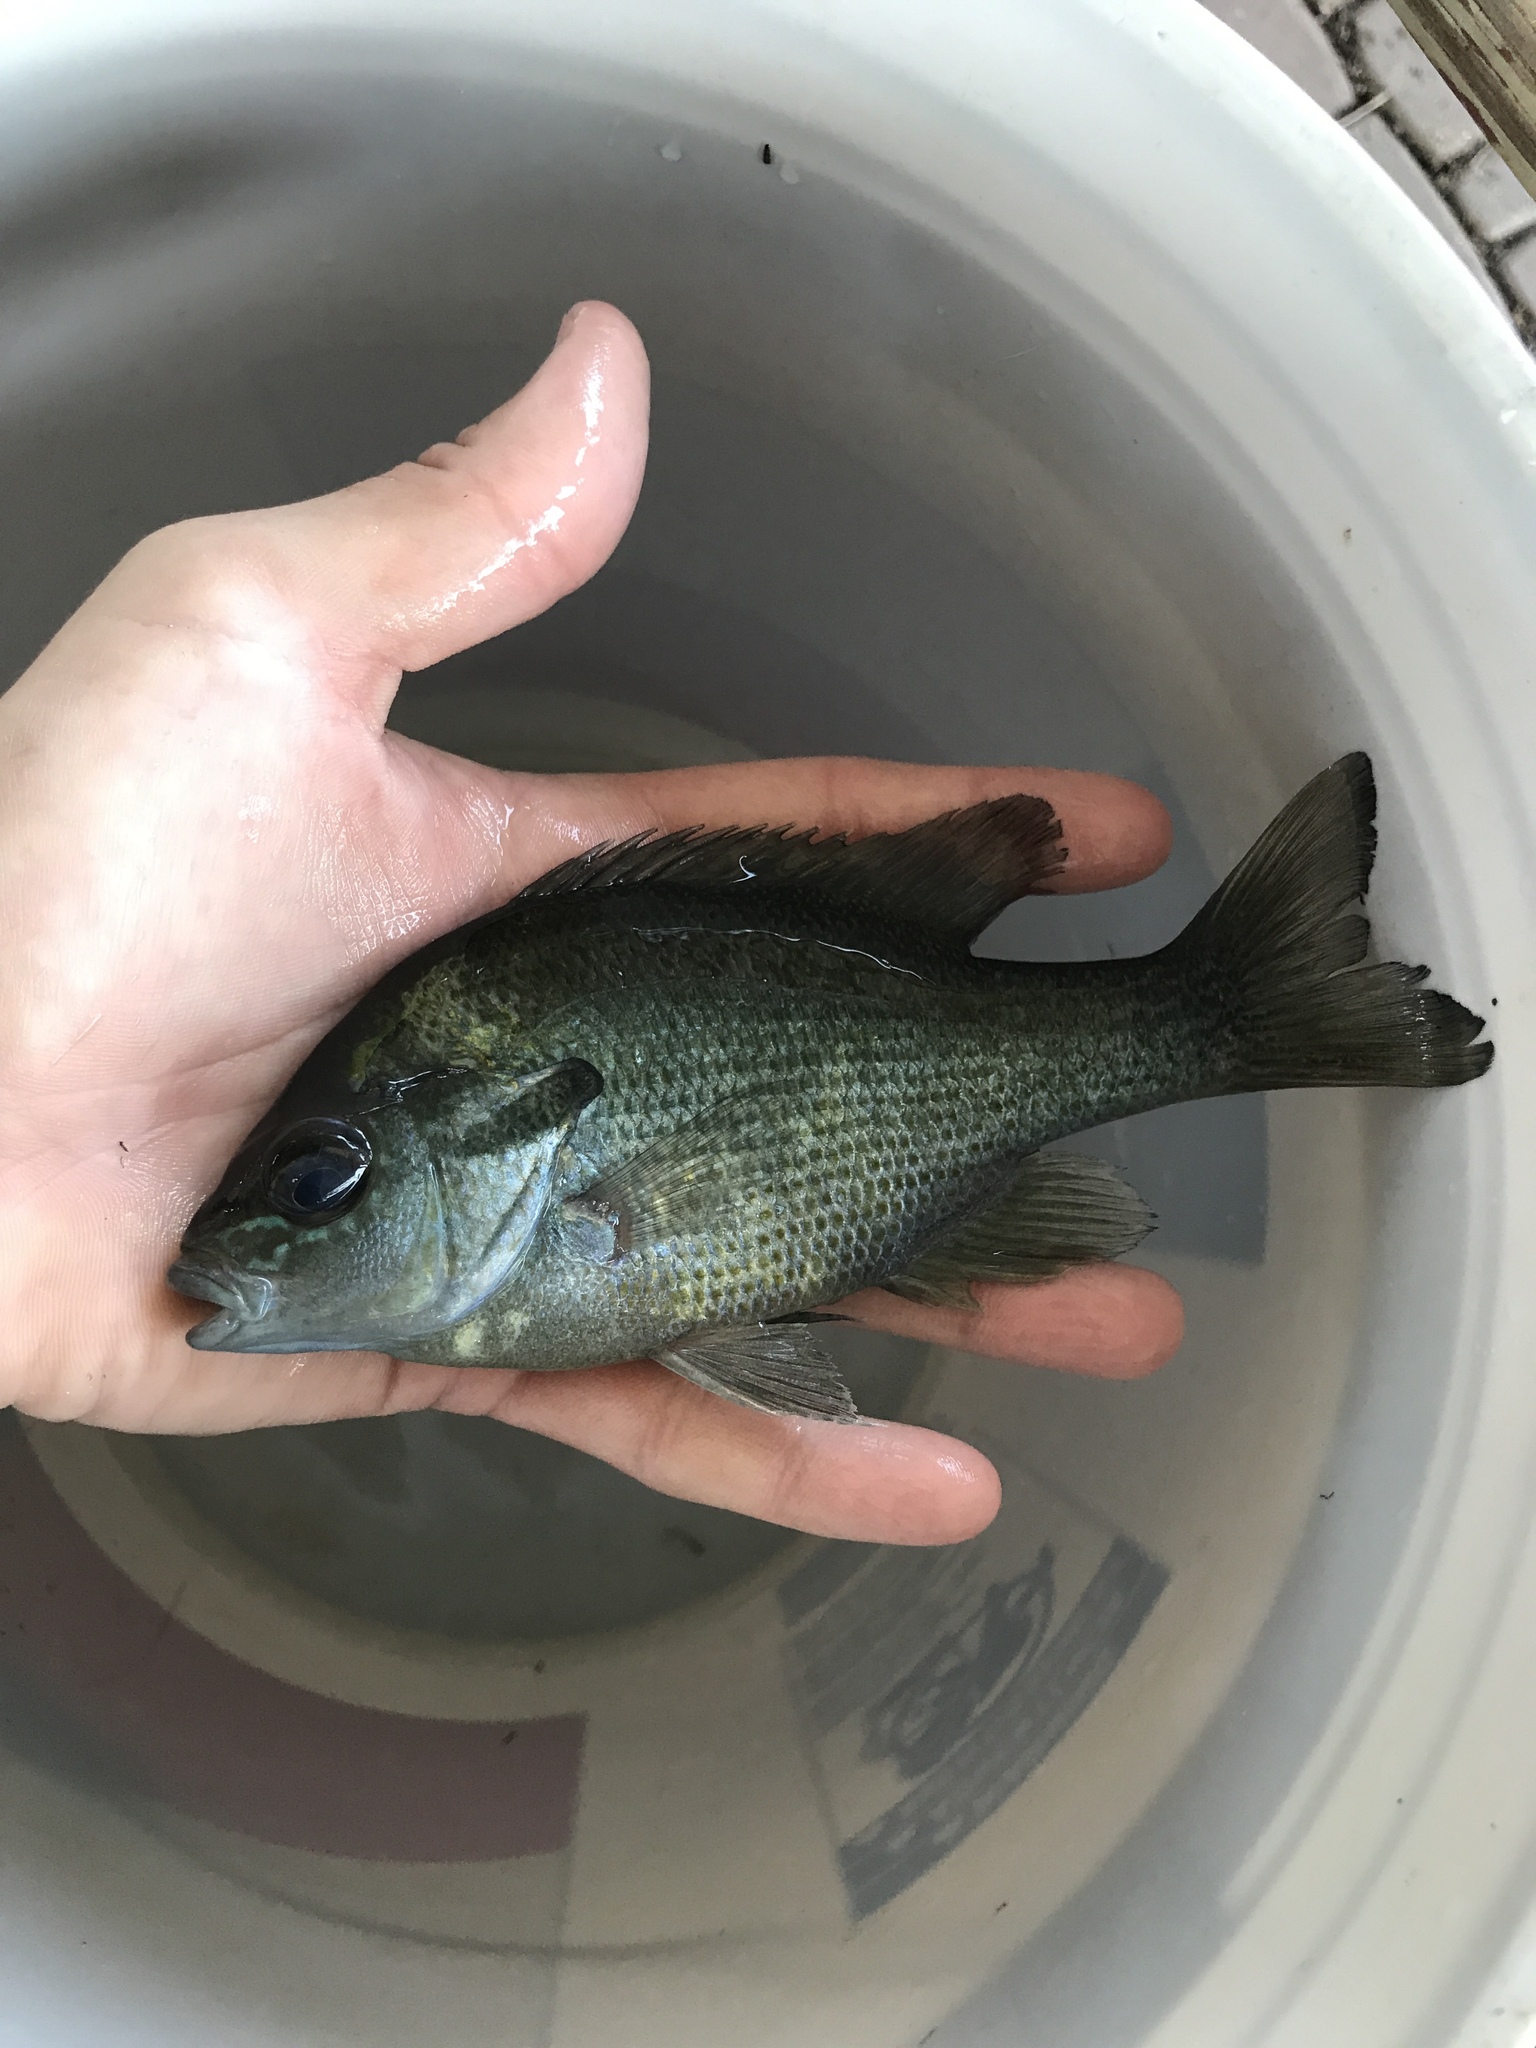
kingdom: Animalia
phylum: Chordata
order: Perciformes
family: Centrarchidae
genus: Lepomis
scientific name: Lepomis auritus
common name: Redbreast sunfish
